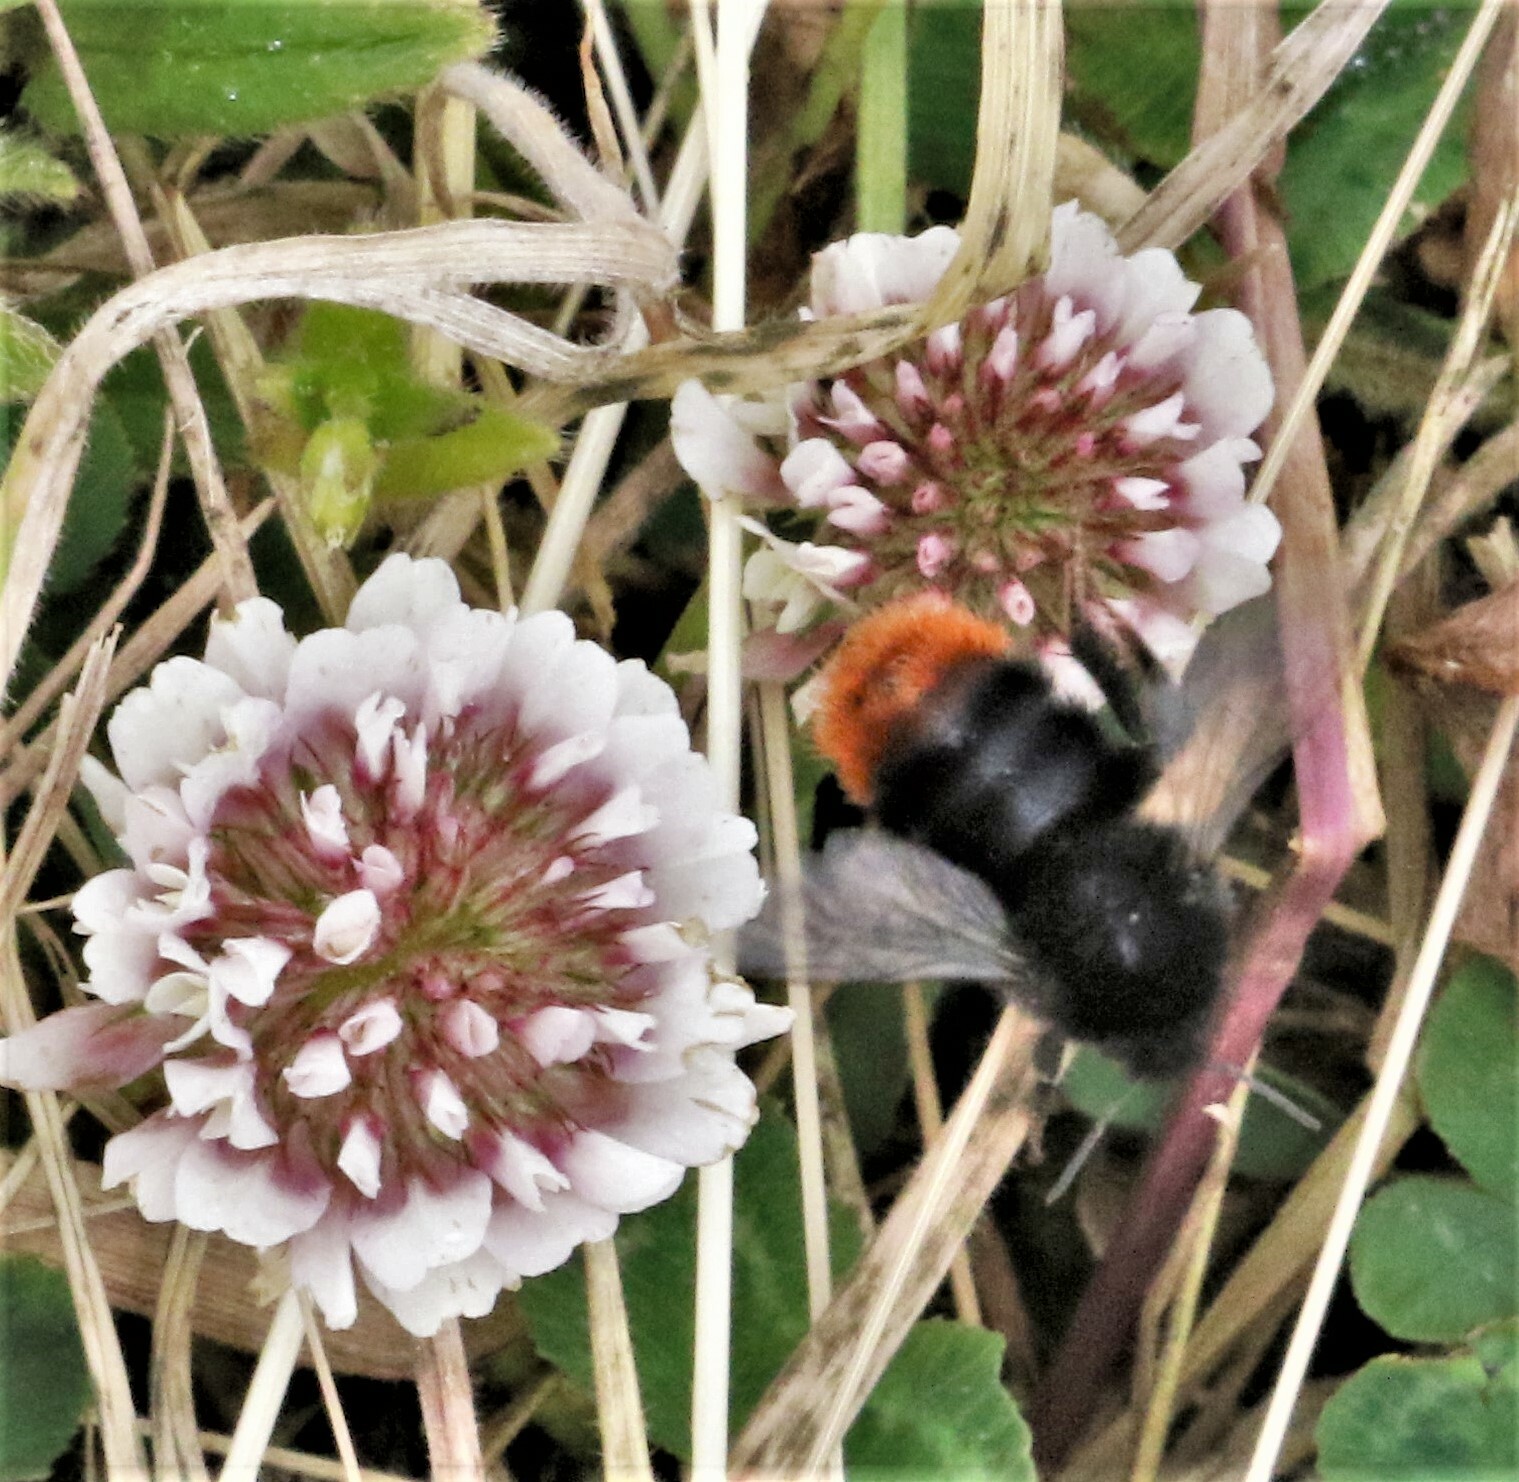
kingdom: Animalia
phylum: Arthropoda
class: Insecta
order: Hymenoptera
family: Apidae
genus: Bombus
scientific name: Bombus lapidarius
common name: Large red-tailed humble-bee
